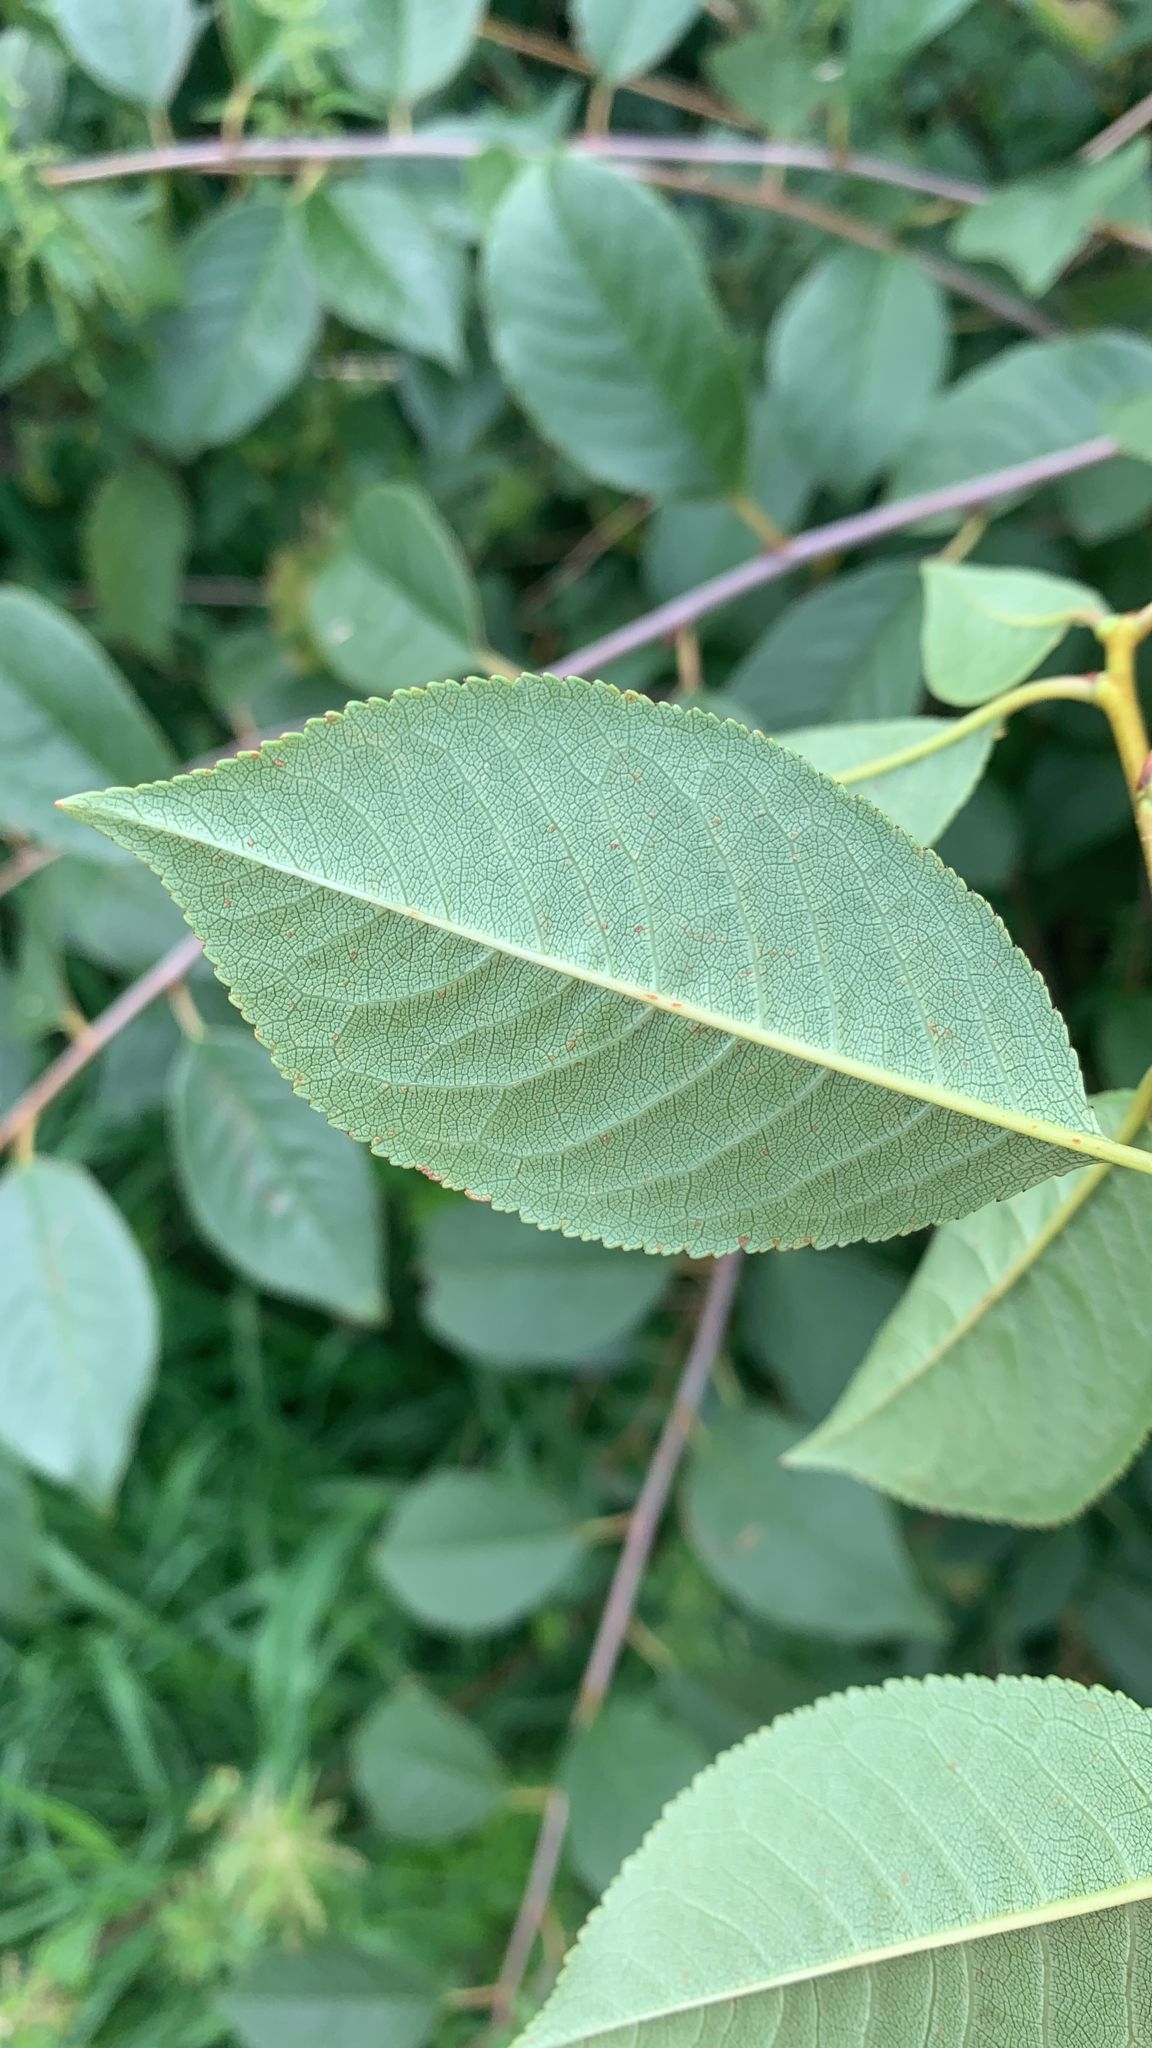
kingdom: Plantae
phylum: Tracheophyta
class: Magnoliopsida
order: Rosales
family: Rosaceae
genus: Prunus
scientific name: Prunus cerasus
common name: Morello cherry
